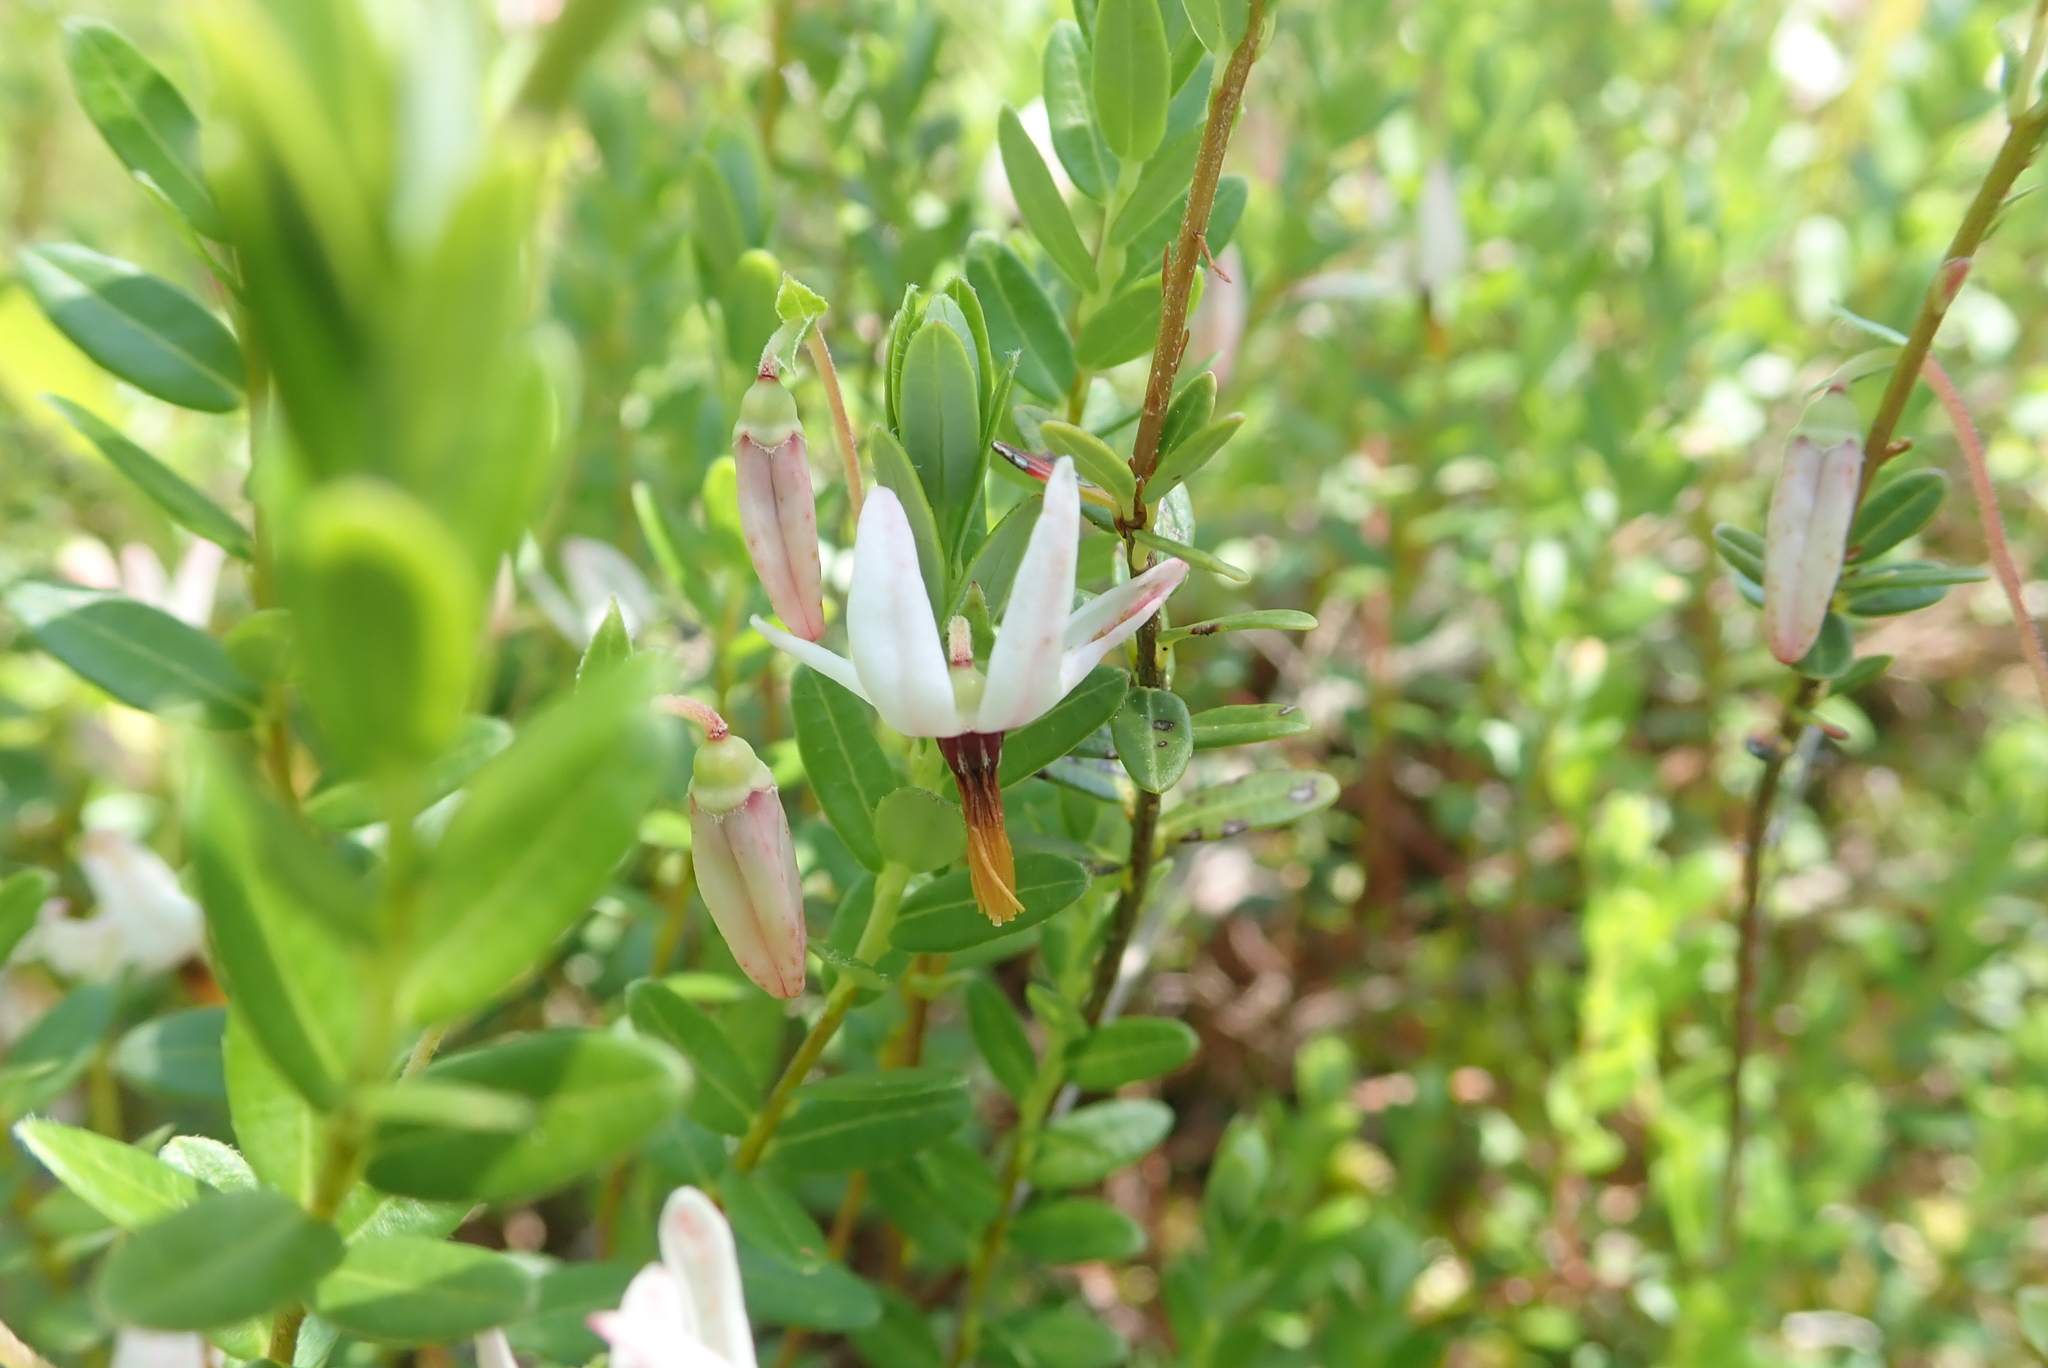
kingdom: Plantae
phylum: Tracheophyta
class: Magnoliopsida
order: Ericales
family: Ericaceae
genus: Vaccinium
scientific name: Vaccinium macrocarpon
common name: American cranberry
